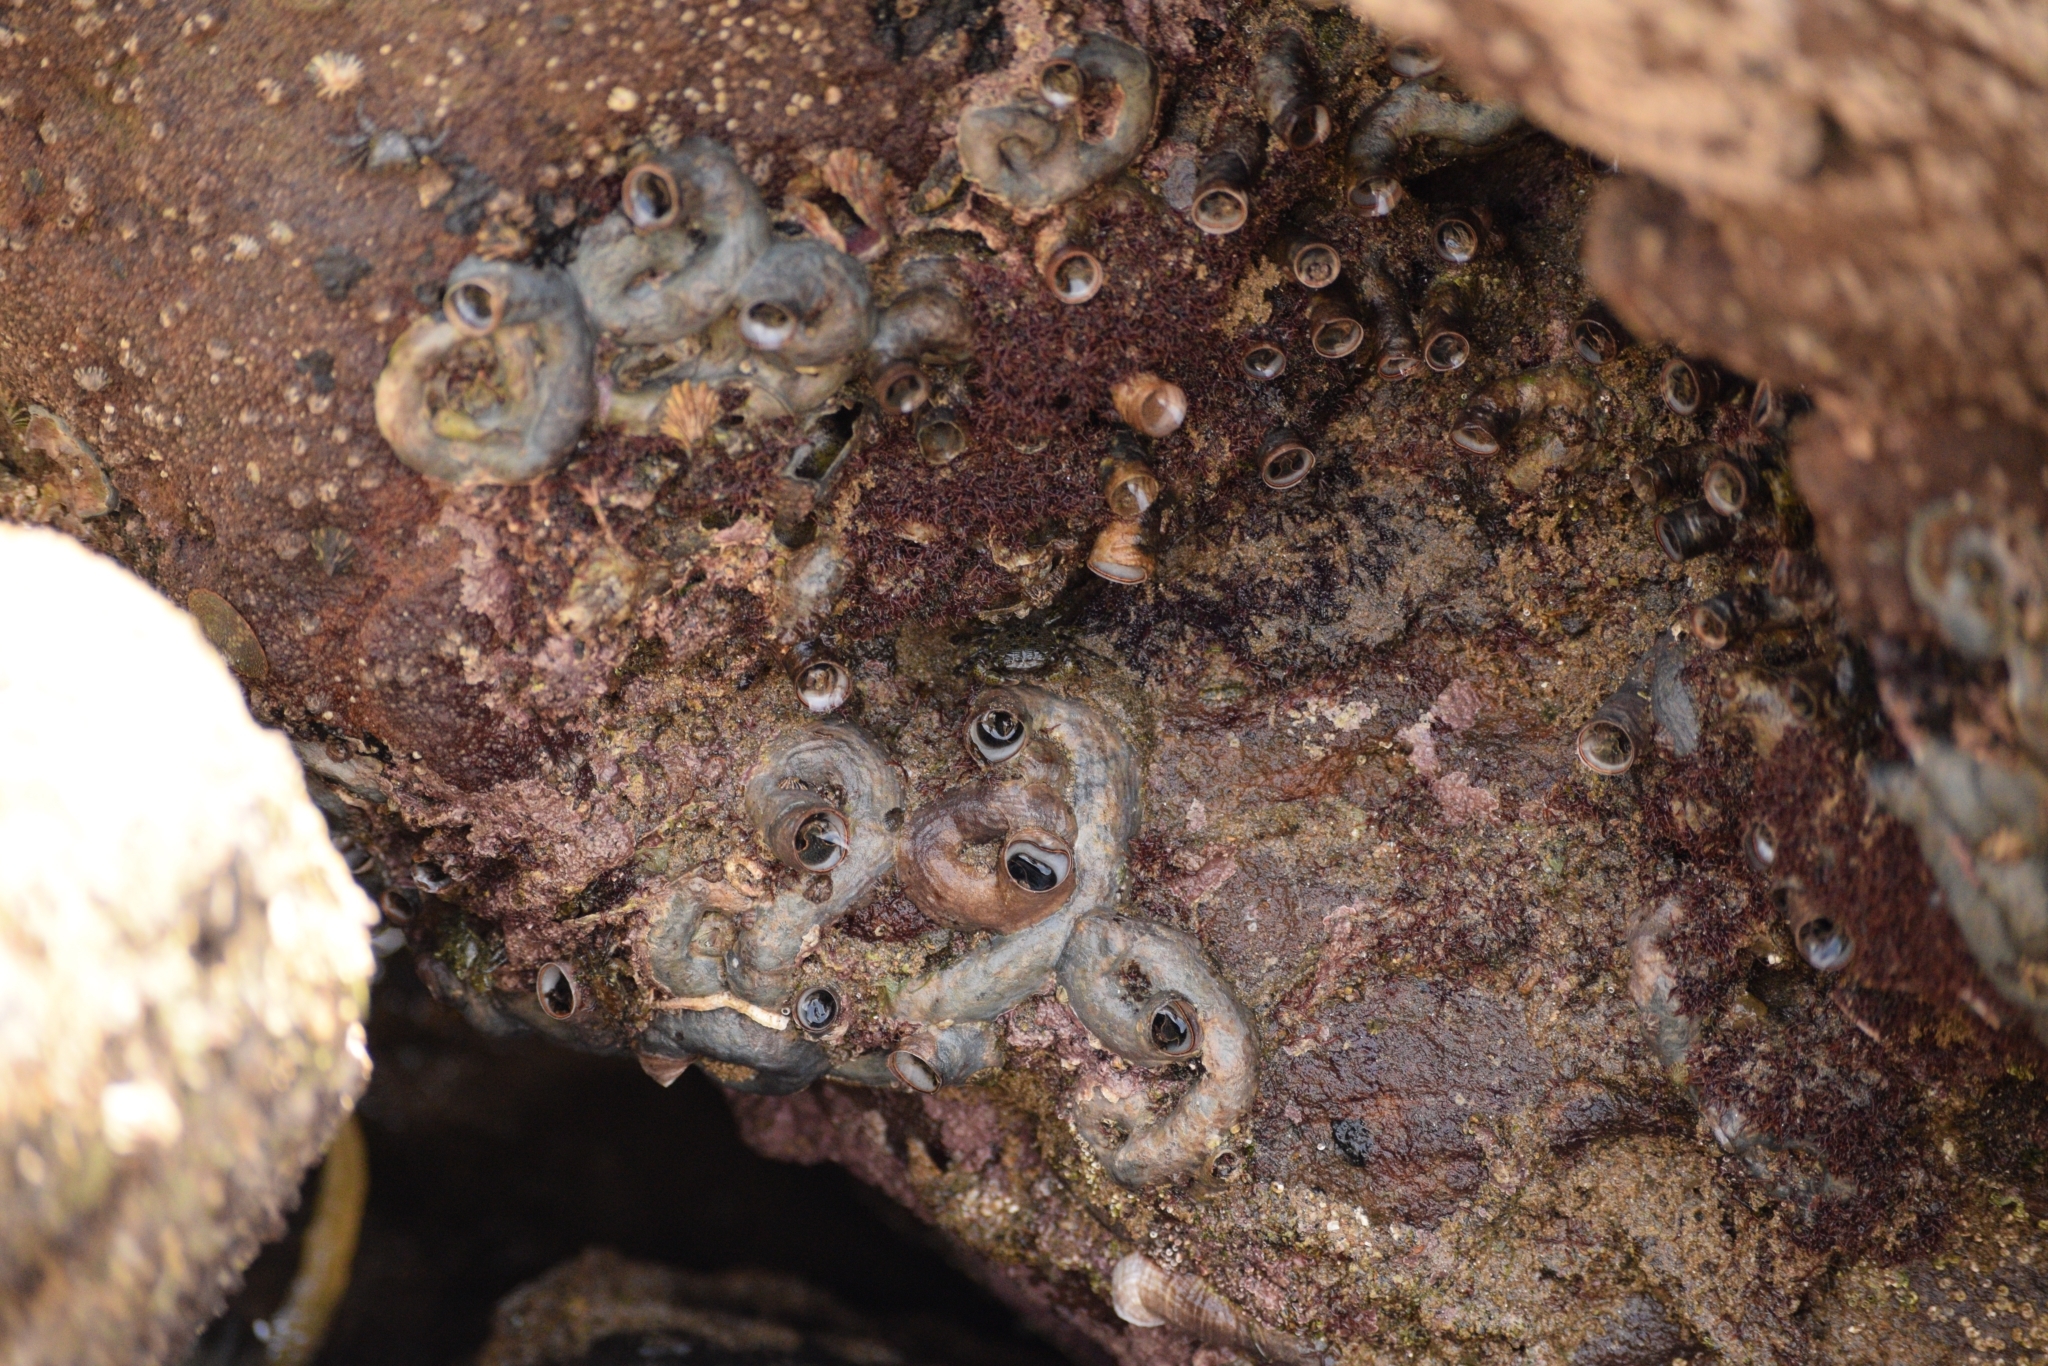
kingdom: Animalia
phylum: Mollusca
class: Gastropoda
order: Littorinimorpha
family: Vermetidae
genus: Thylacodes
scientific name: Thylacodes squamigerus
